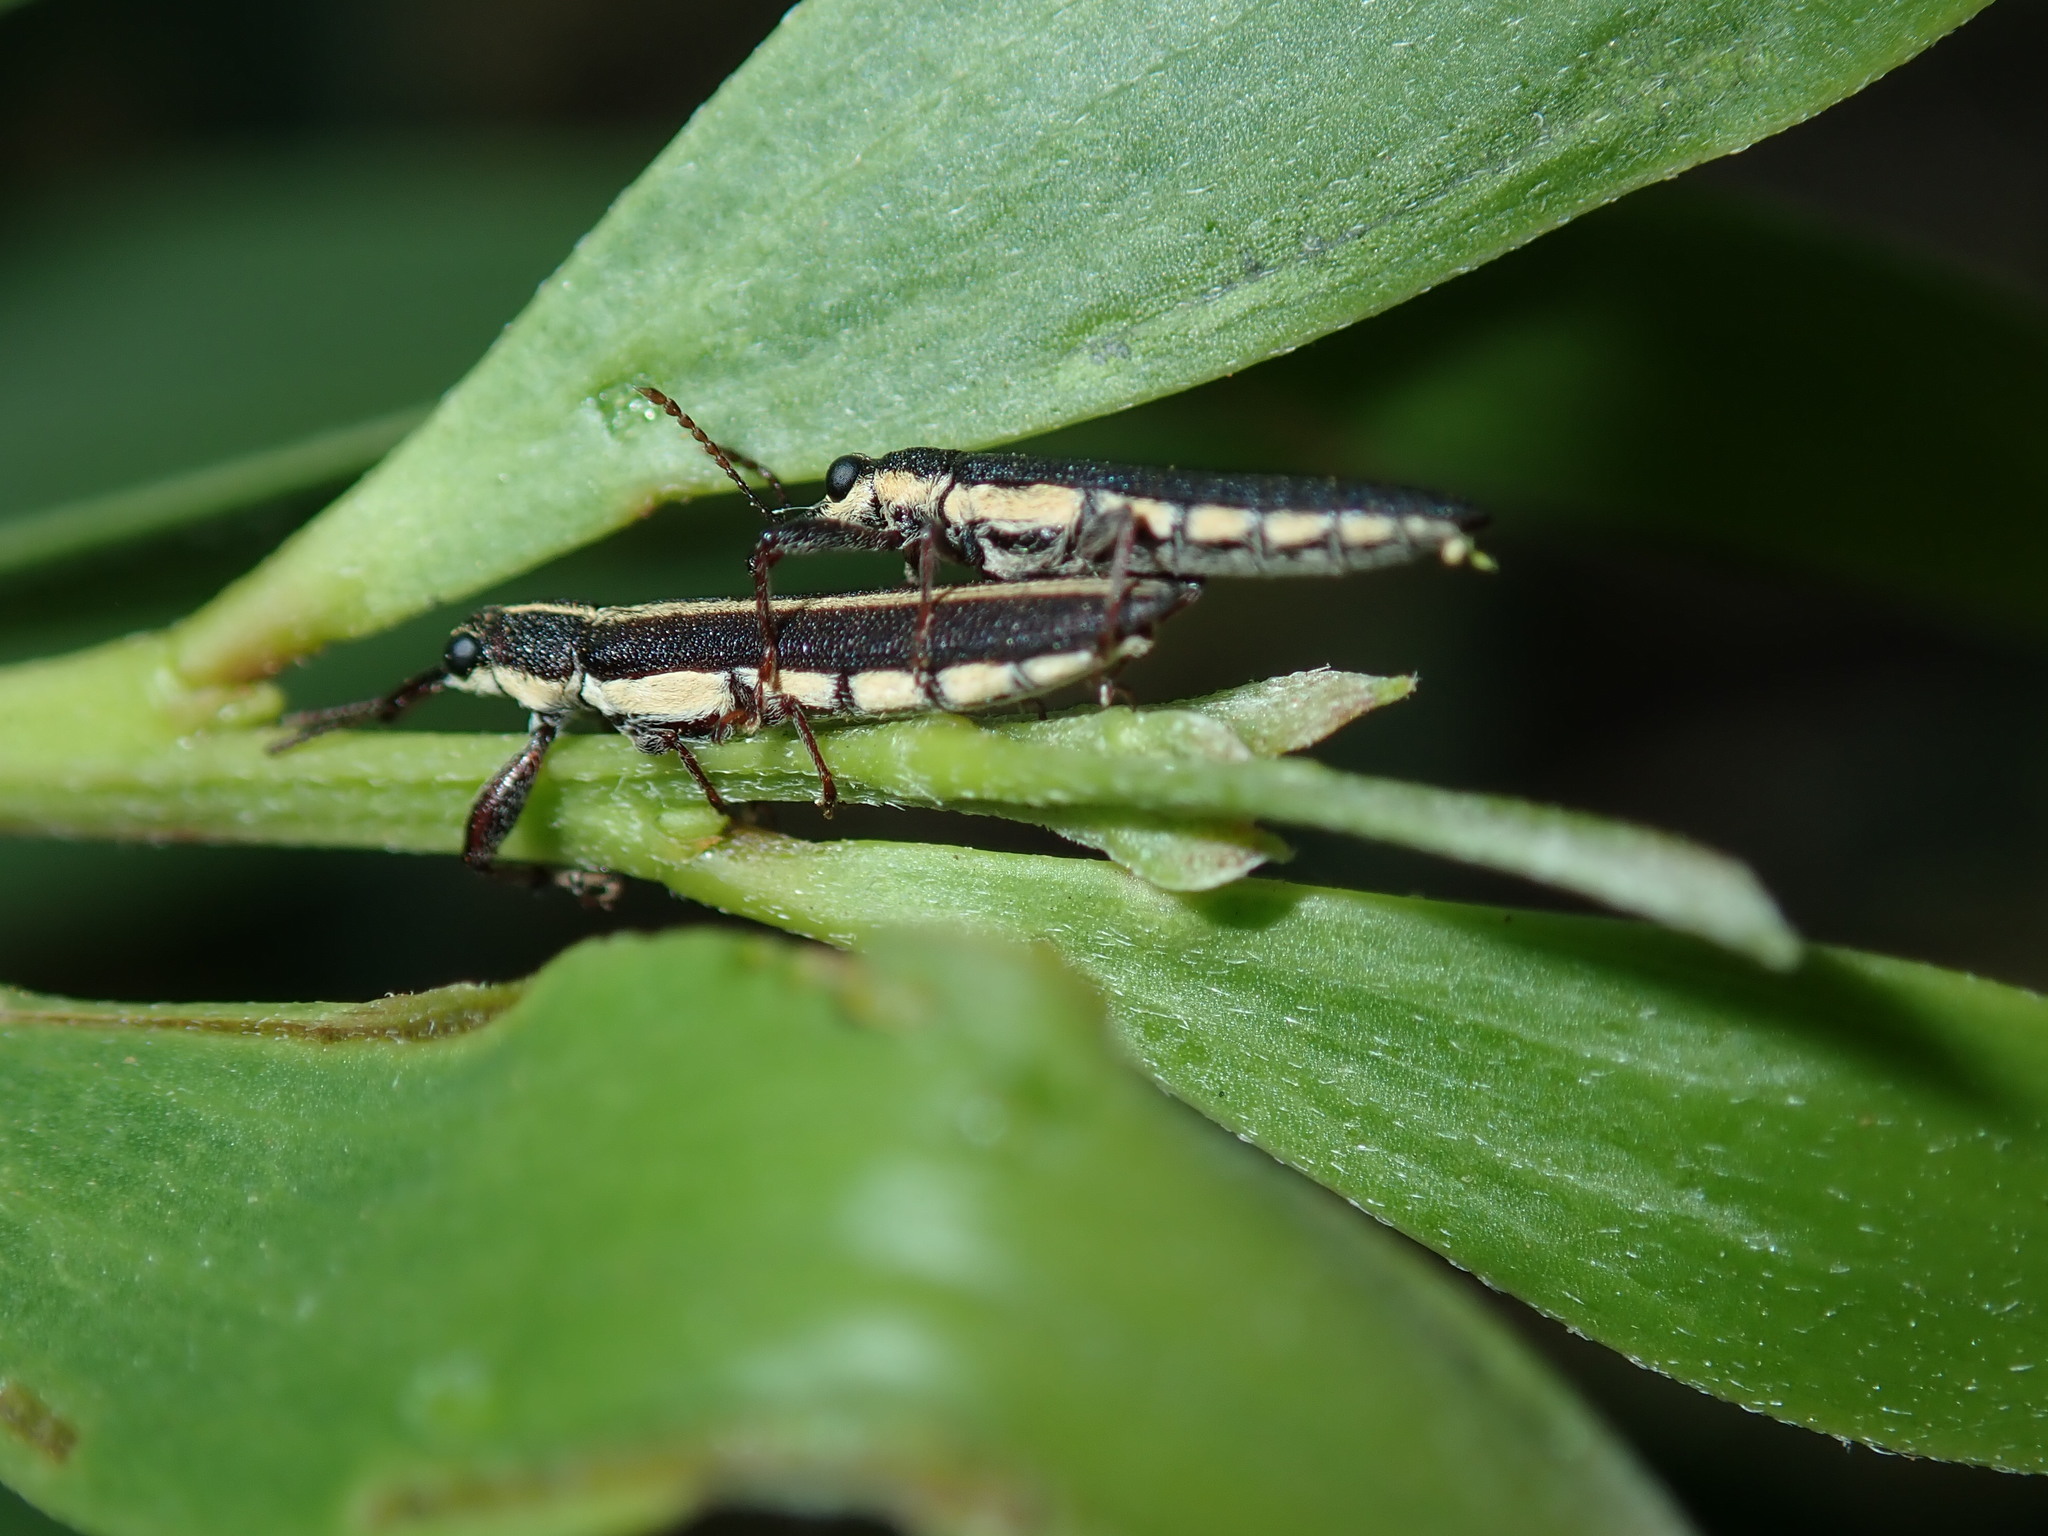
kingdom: Animalia
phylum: Arthropoda
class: Insecta
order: Coleoptera
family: Belidae
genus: Rhinotia
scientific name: Rhinotia suturalis
